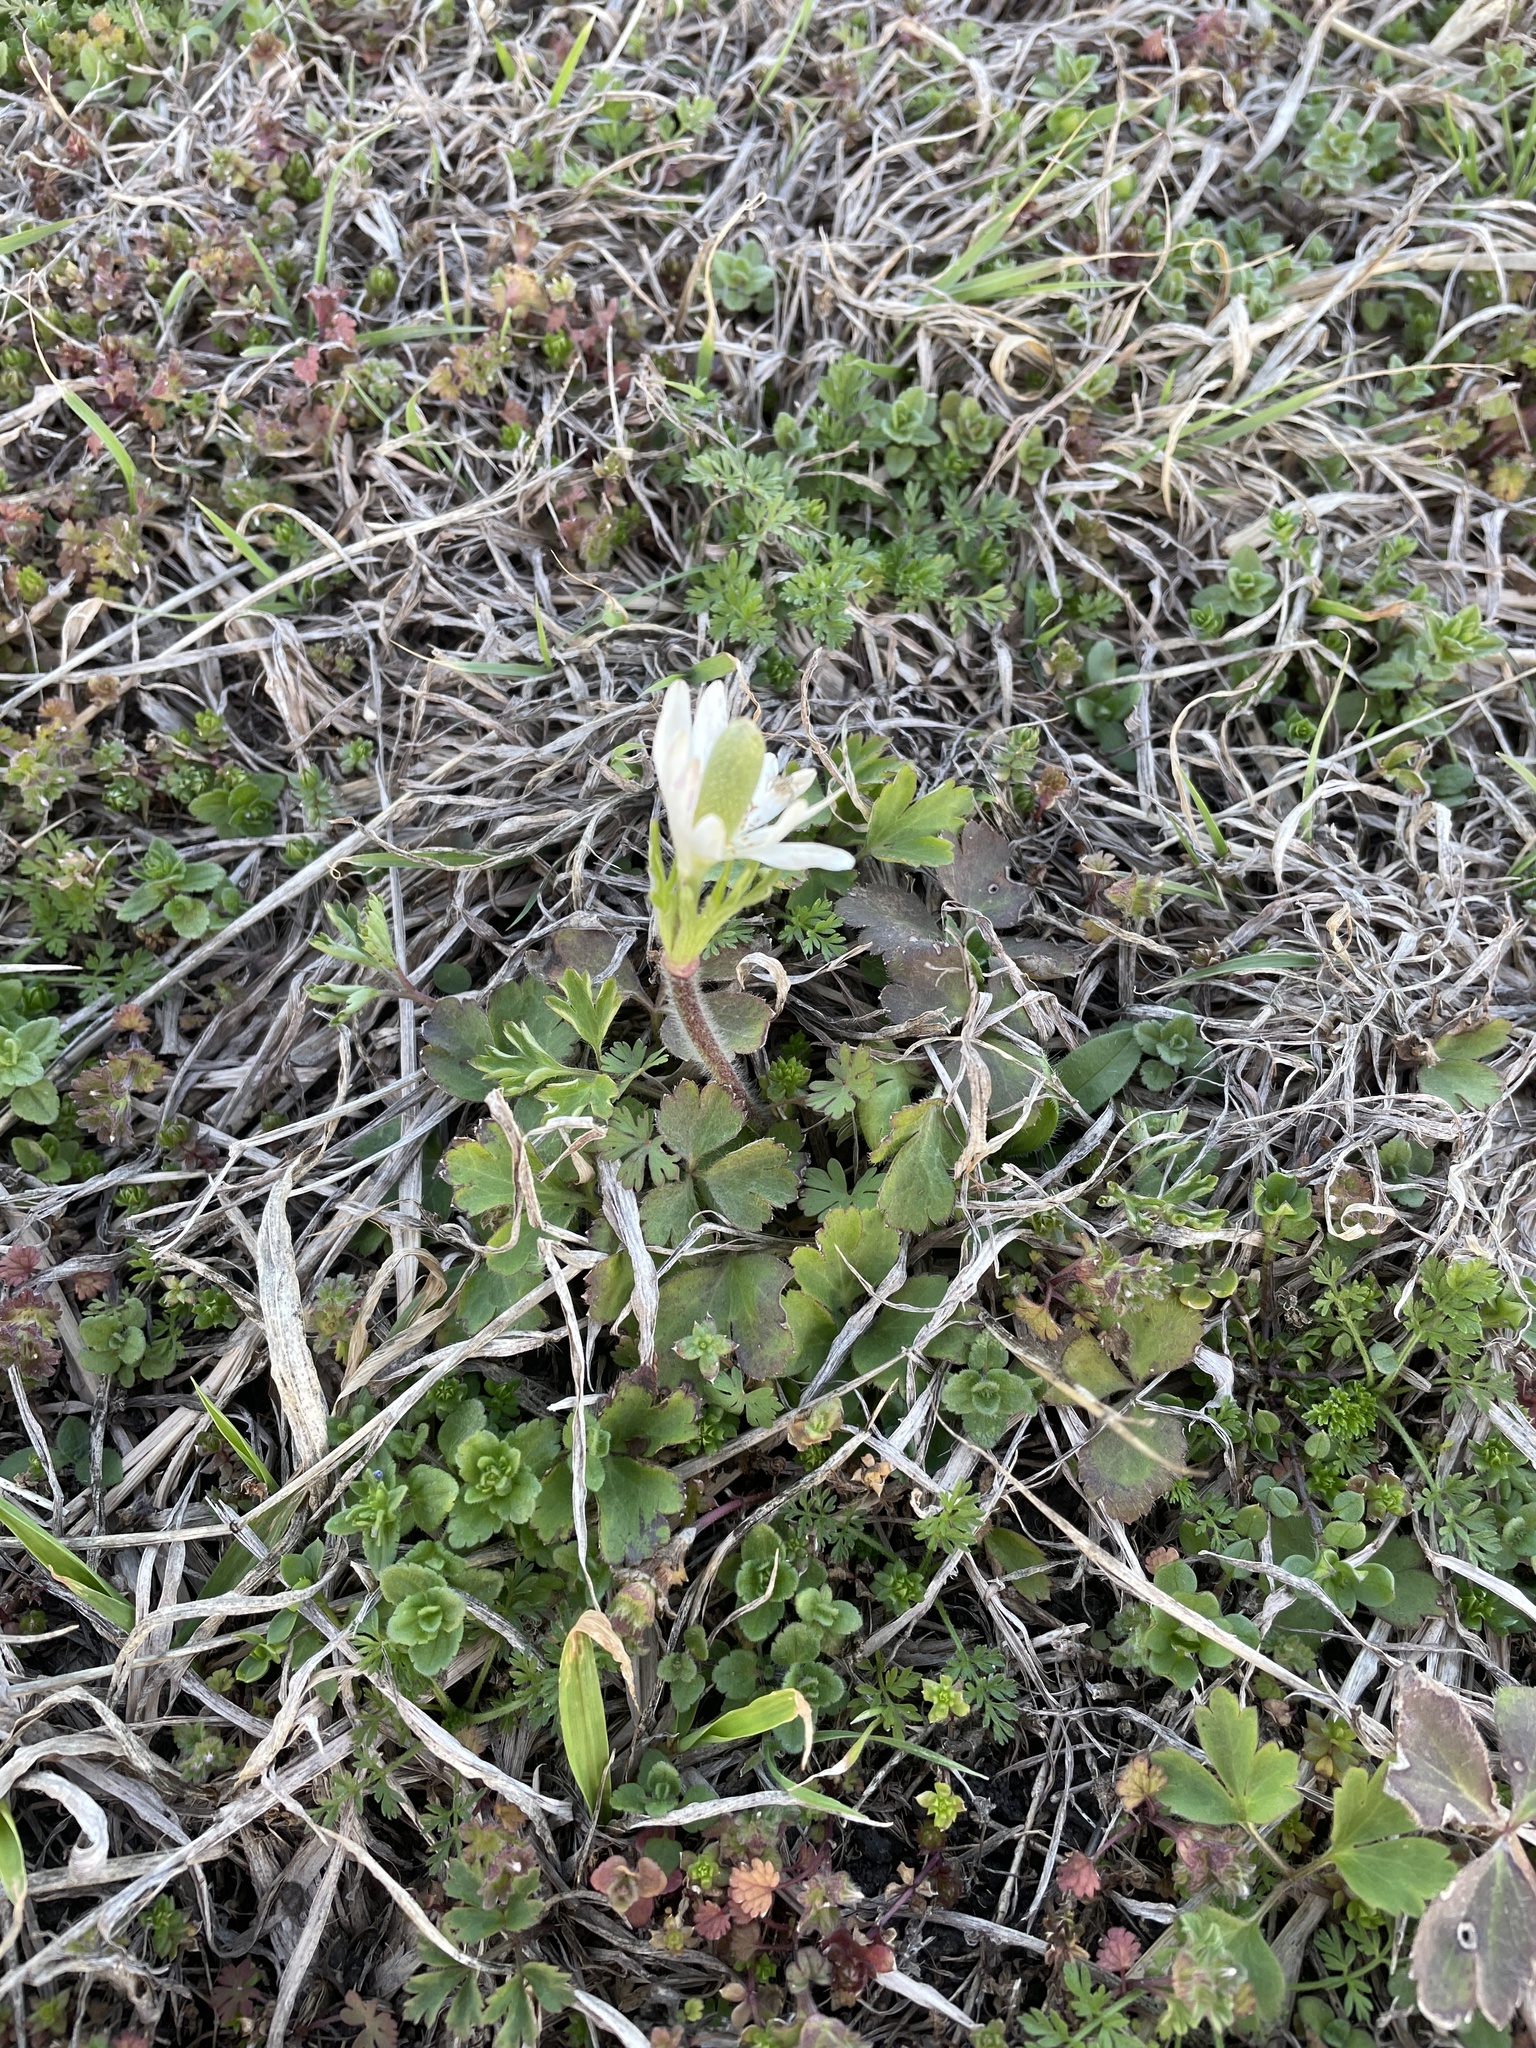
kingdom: Plantae
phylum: Tracheophyta
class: Magnoliopsida
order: Ranunculales
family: Ranunculaceae
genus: Anemone
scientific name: Anemone berlandieri
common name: Ten-petal anemone
